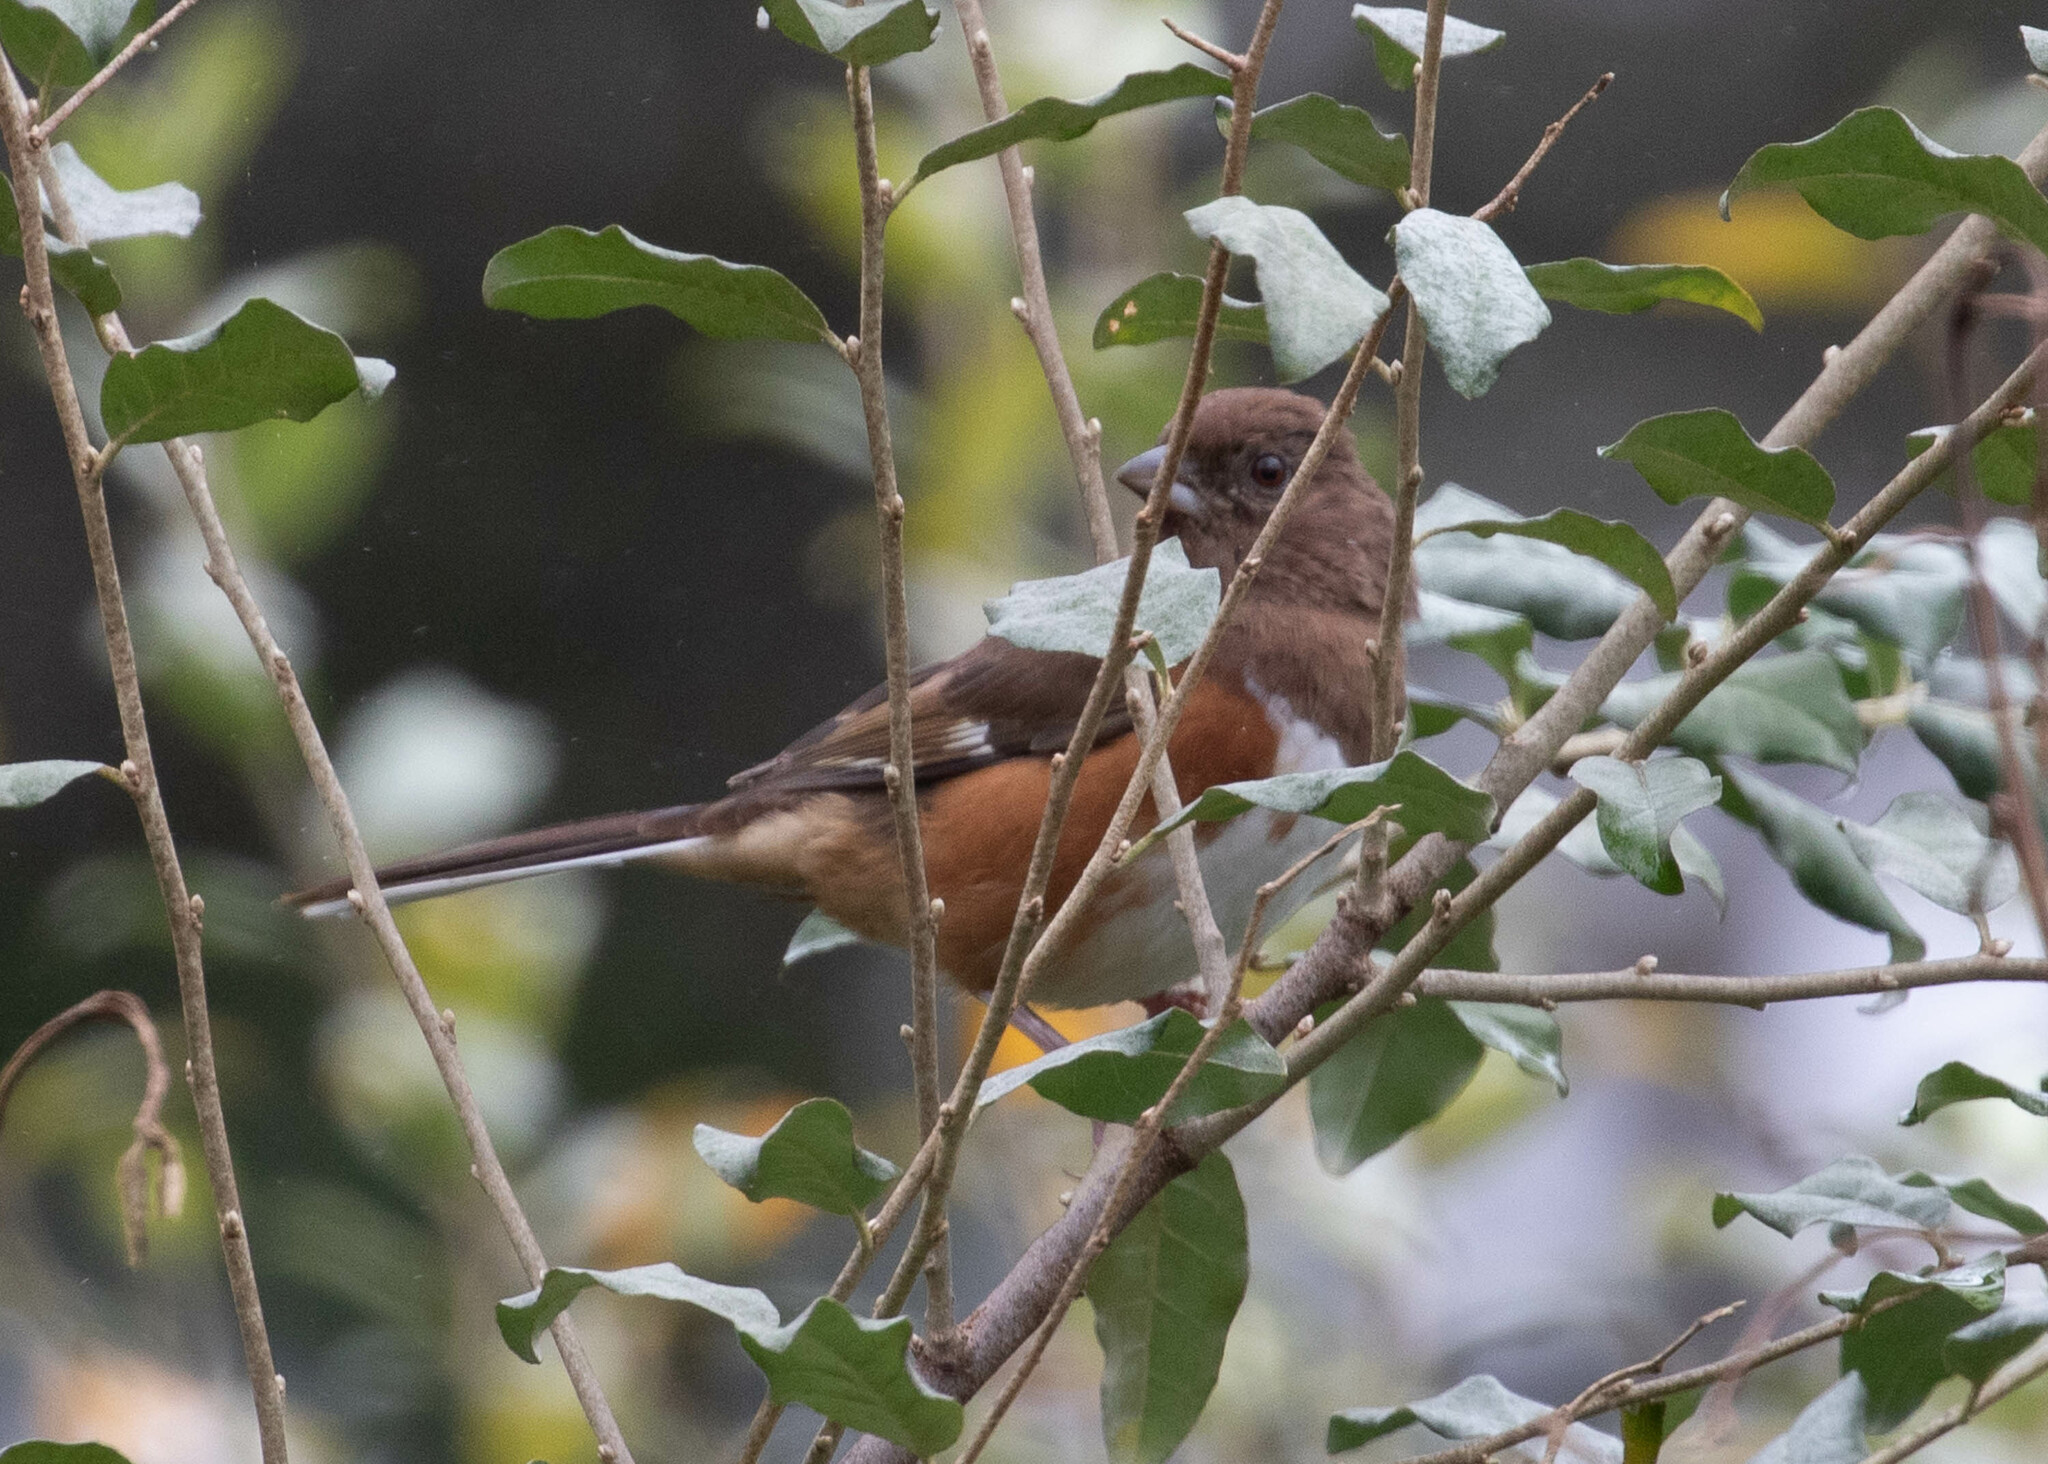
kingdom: Animalia
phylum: Chordata
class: Aves
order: Passeriformes
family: Passerellidae
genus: Pipilo
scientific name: Pipilo erythrophthalmus
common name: Eastern towhee
